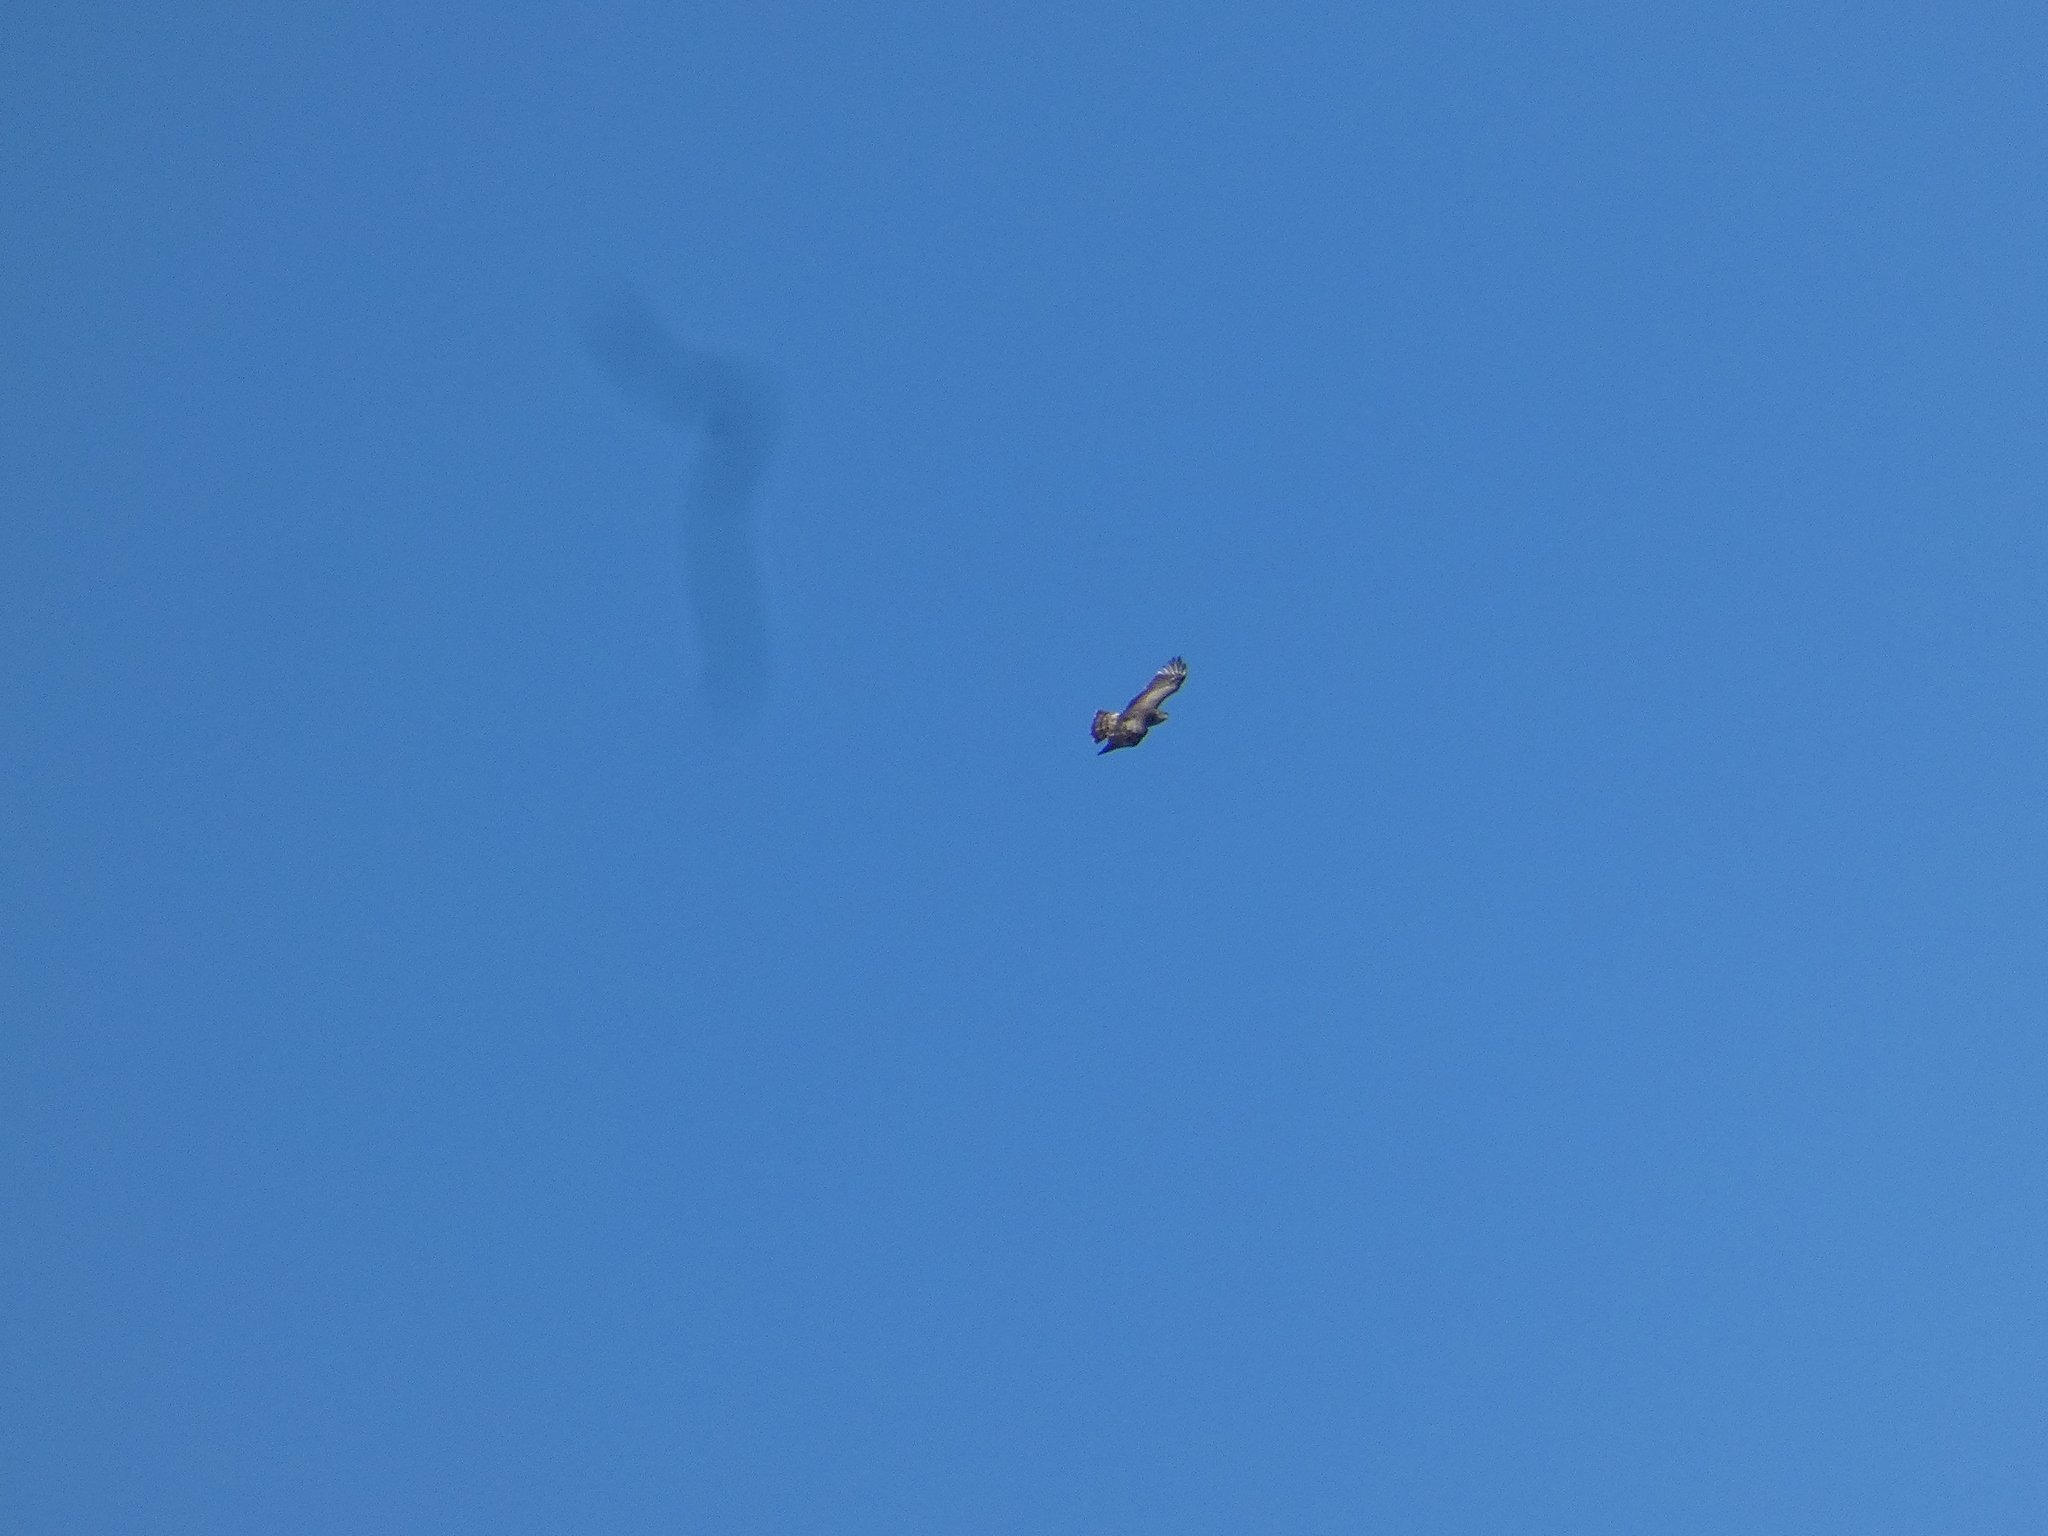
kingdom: Animalia
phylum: Chordata
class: Aves
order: Accipitriformes
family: Accipitridae
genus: Circaetus
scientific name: Circaetus gallicus
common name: Short-toed snake eagle
